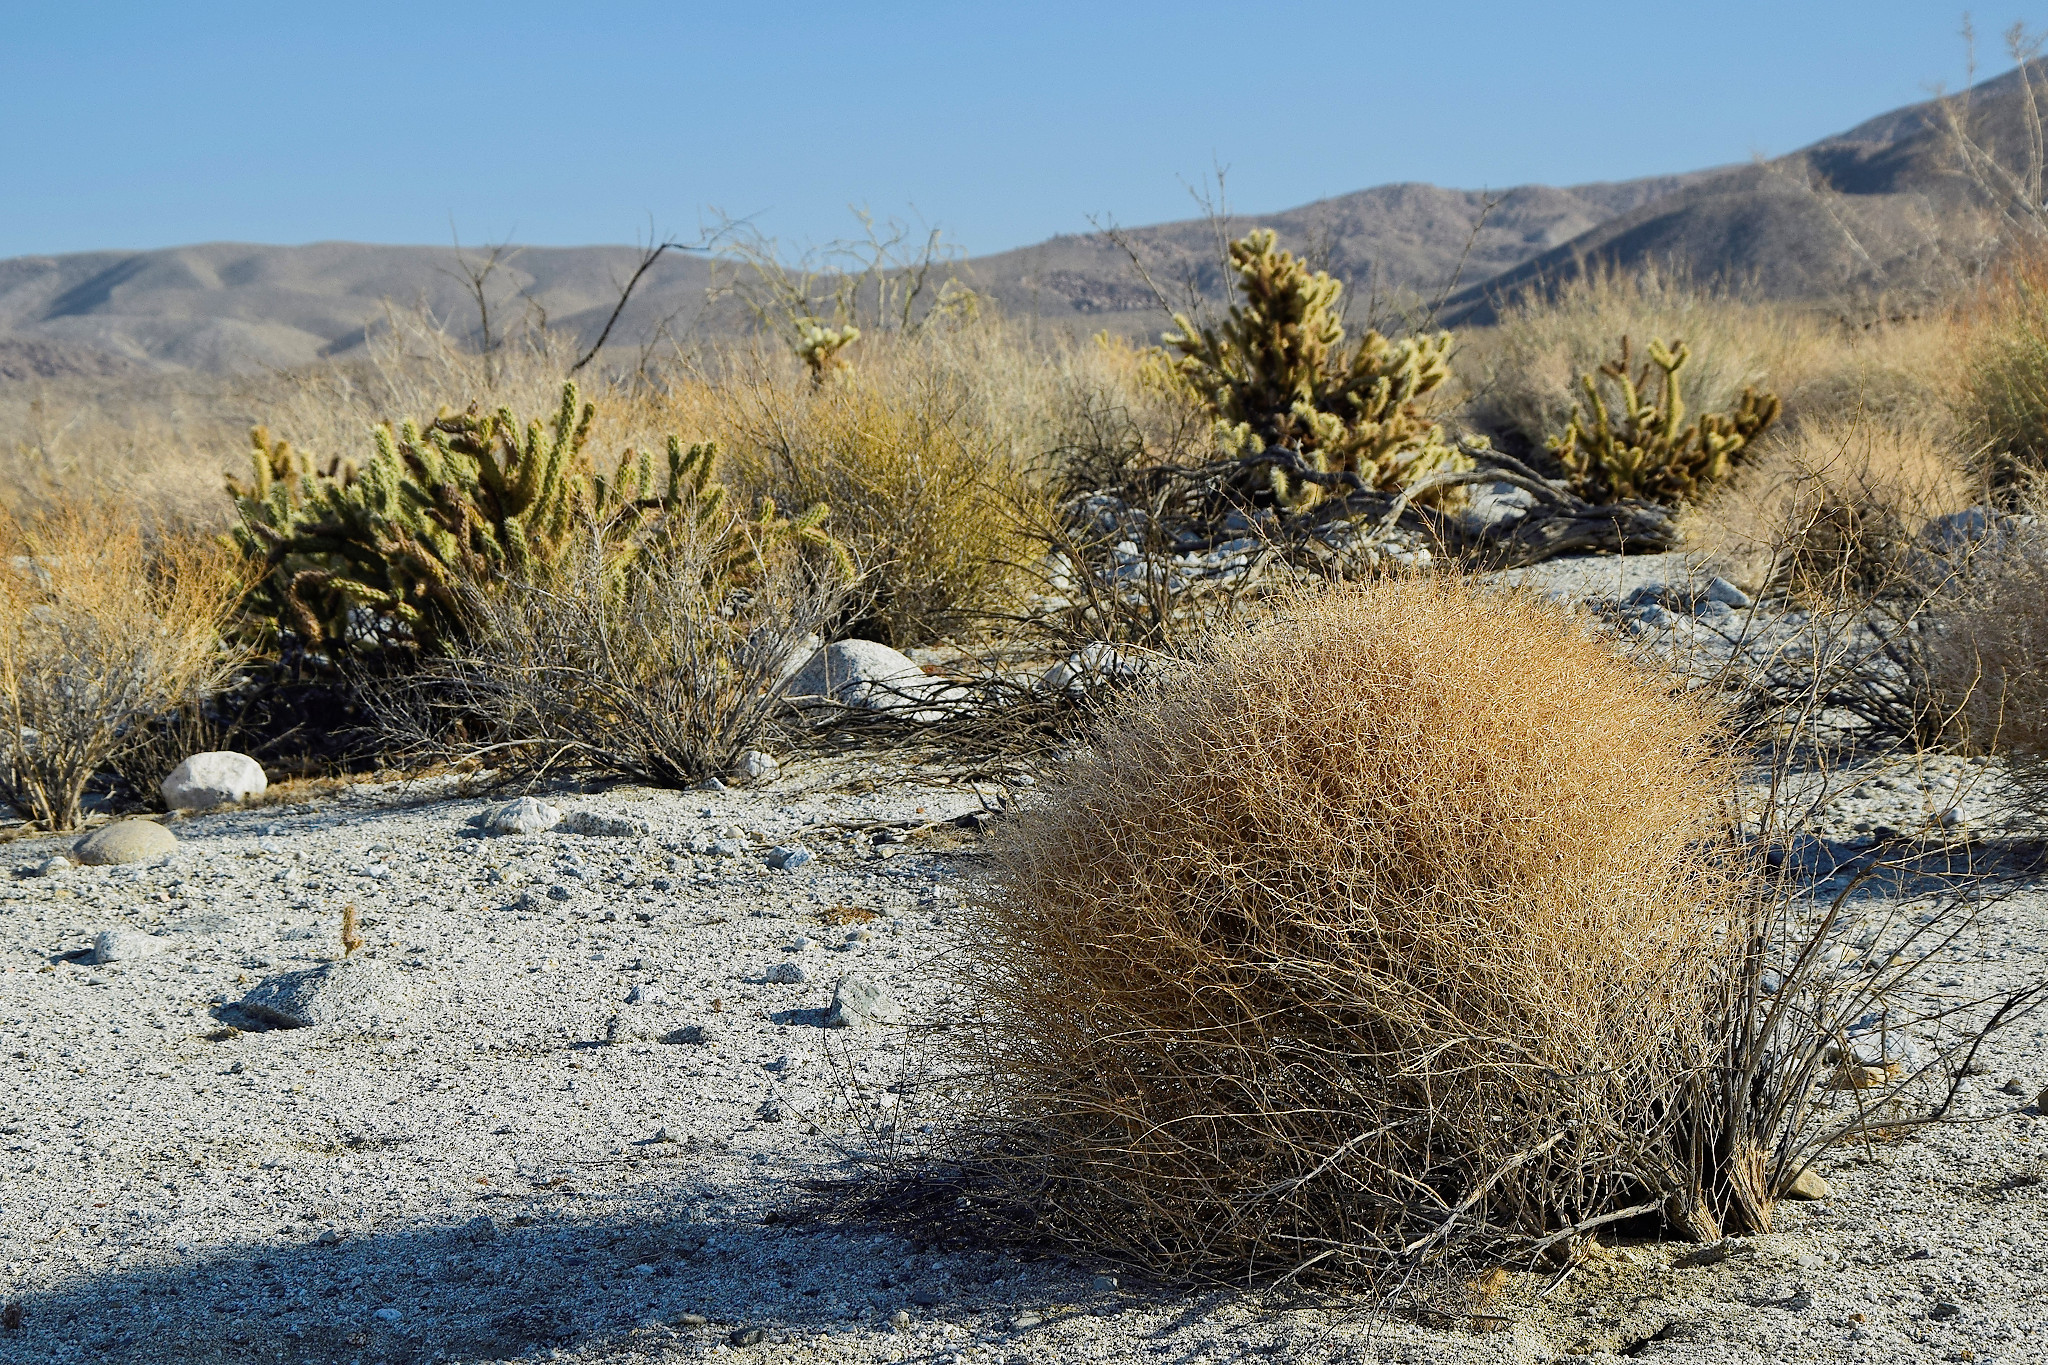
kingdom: Plantae
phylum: Tracheophyta
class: Magnoliopsida
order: Asterales
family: Asteraceae
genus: Ambrosia
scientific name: Ambrosia salsola
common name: Burrobrush
